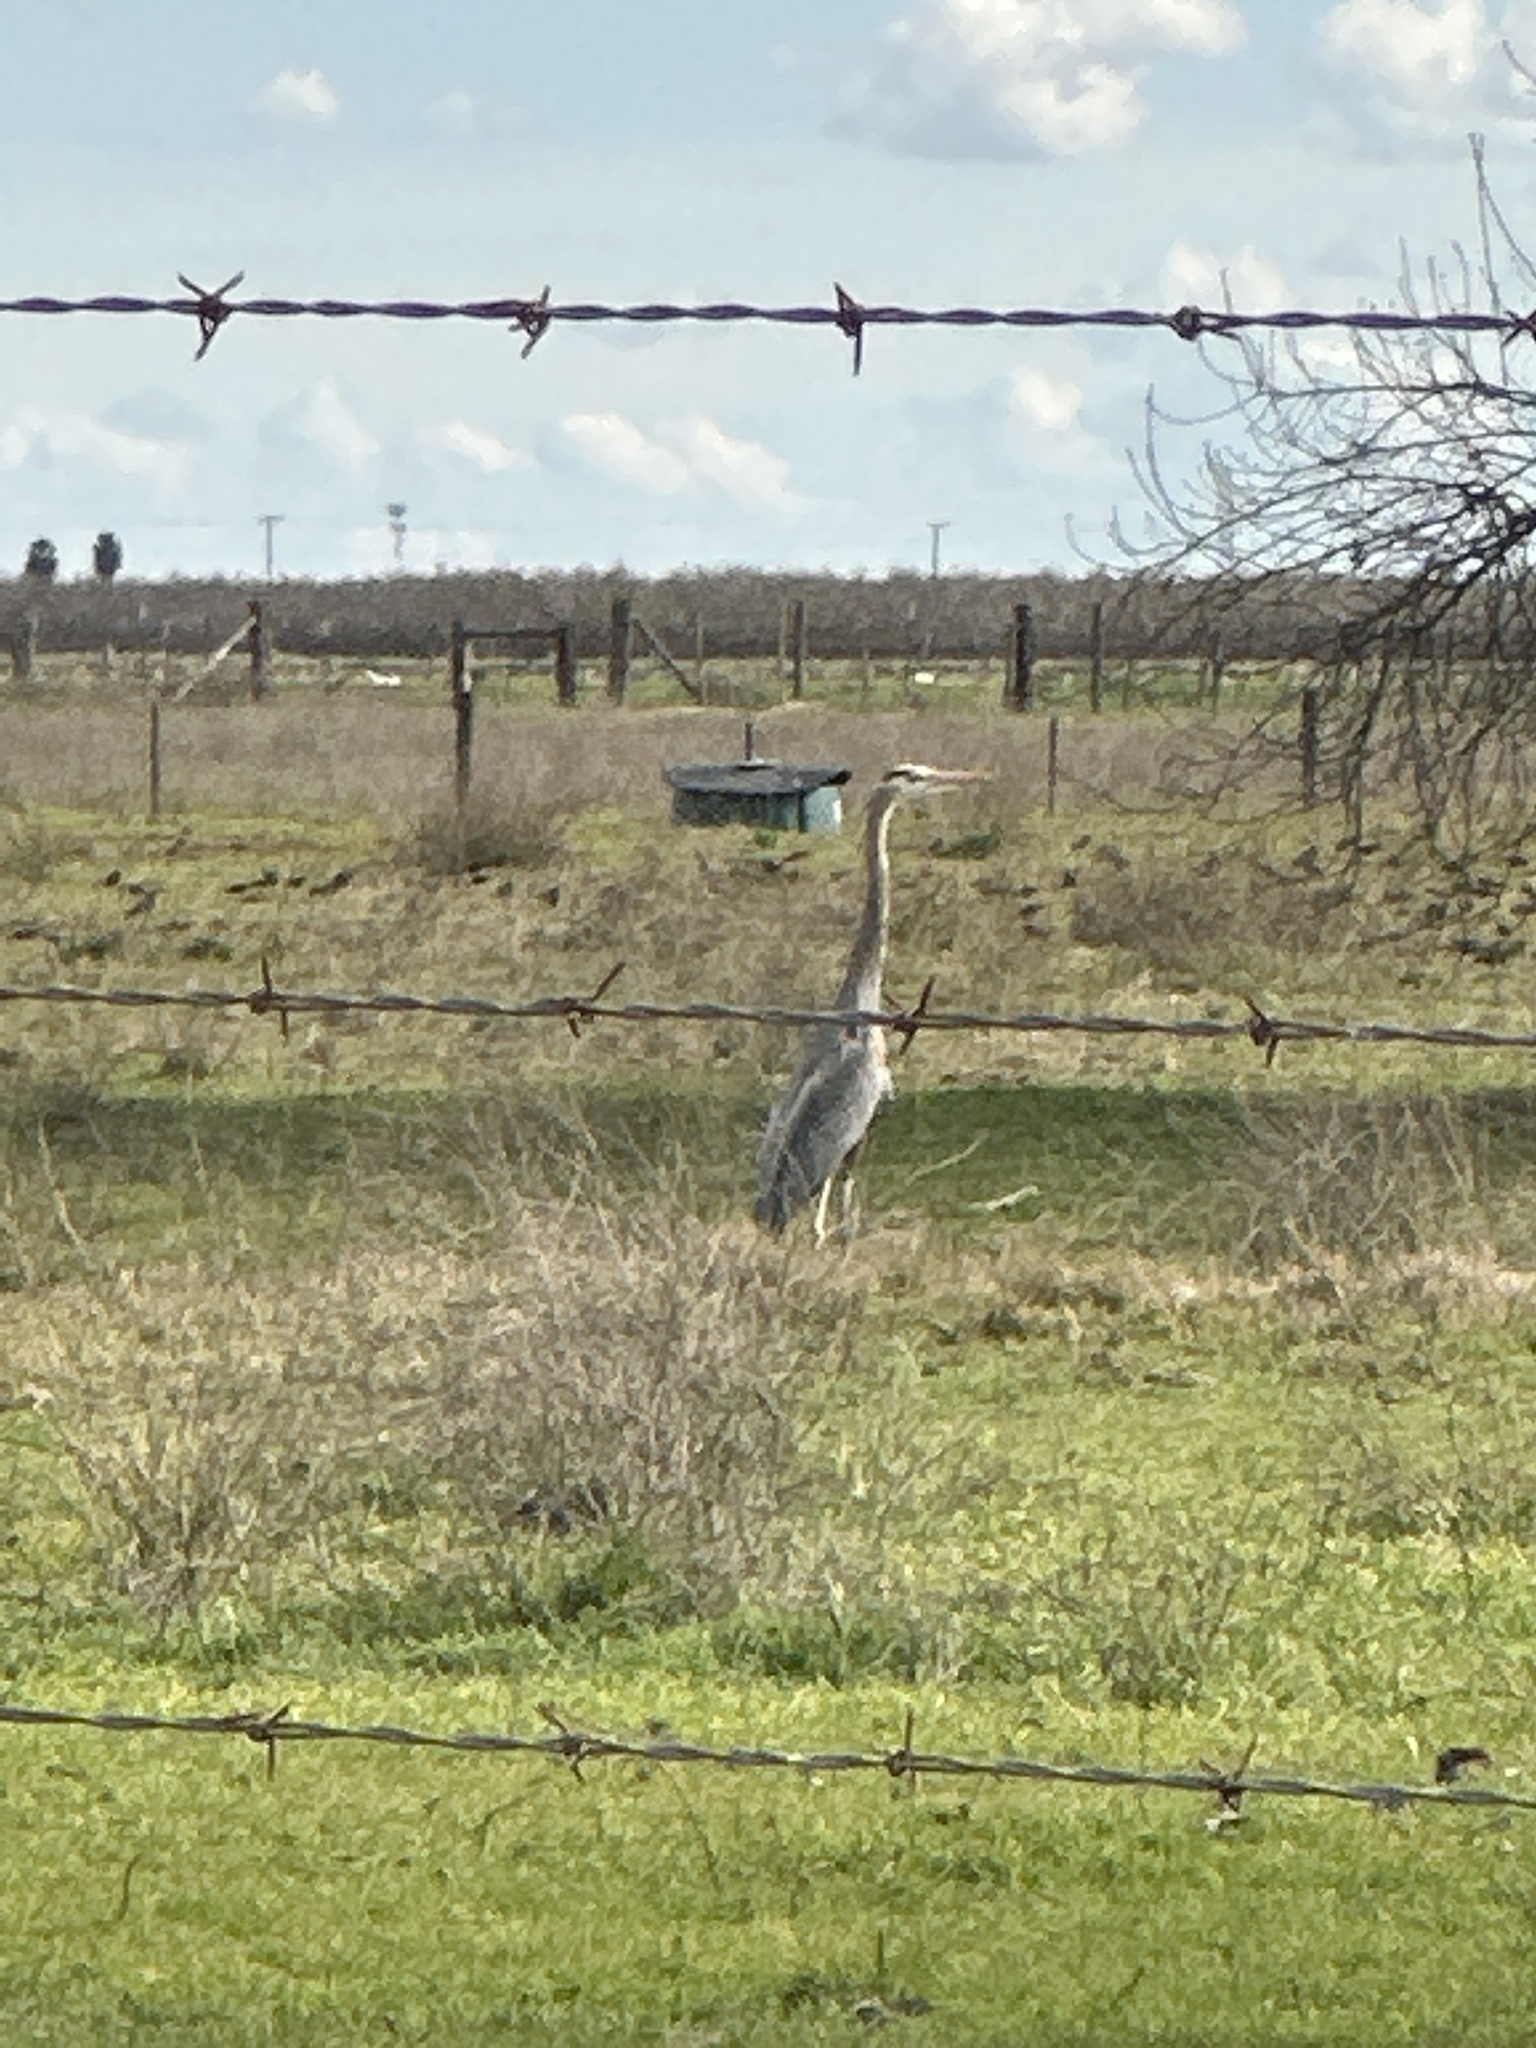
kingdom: Animalia
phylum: Chordata
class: Aves
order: Pelecaniformes
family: Ardeidae
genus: Ardea
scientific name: Ardea herodias
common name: Great blue heron
